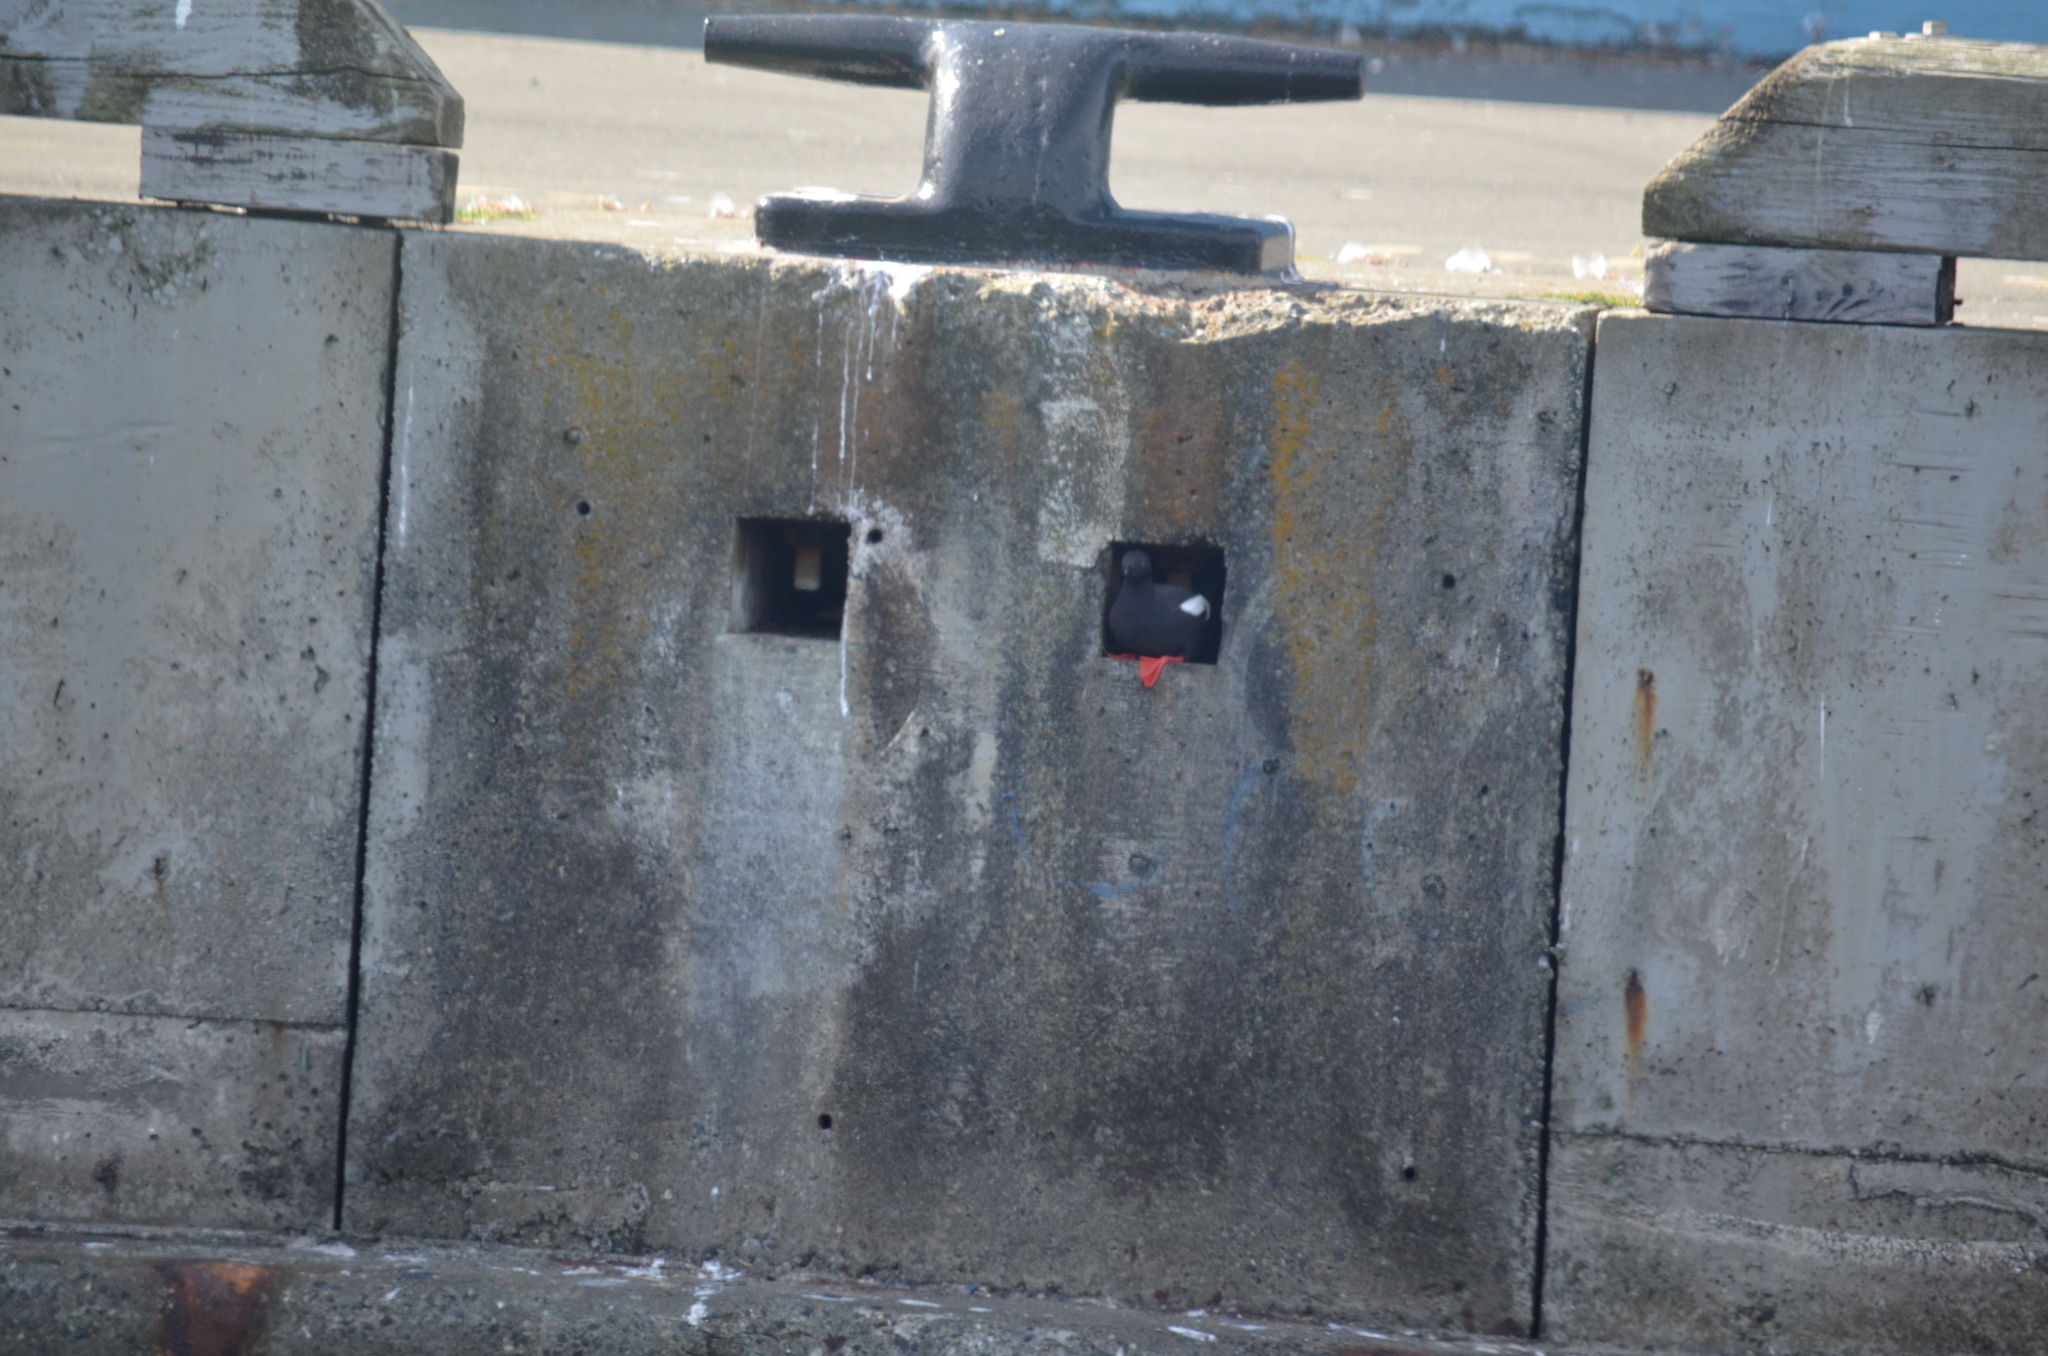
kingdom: Animalia
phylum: Chordata
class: Aves
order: Charadriiformes
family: Alcidae
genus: Cepphus
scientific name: Cepphus columba
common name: Pigeon guillemot
